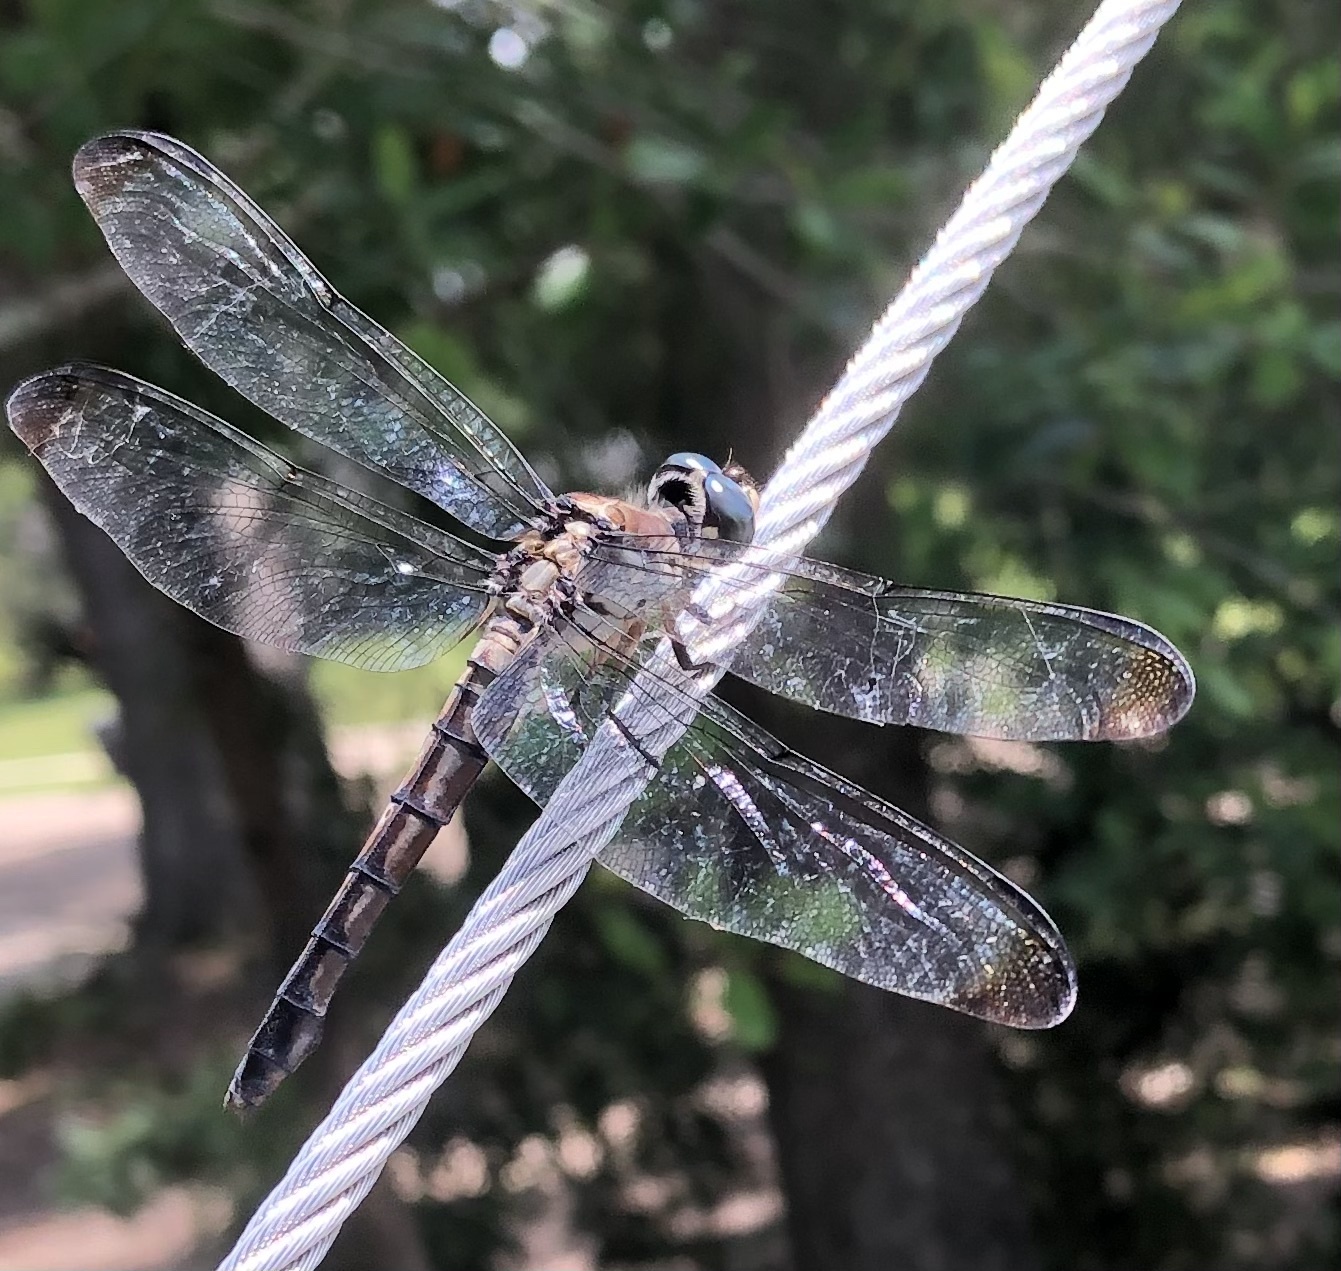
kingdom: Animalia
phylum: Arthropoda
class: Insecta
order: Odonata
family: Libellulidae
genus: Libellula
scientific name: Libellula vibrans
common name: Great blue skimmer
